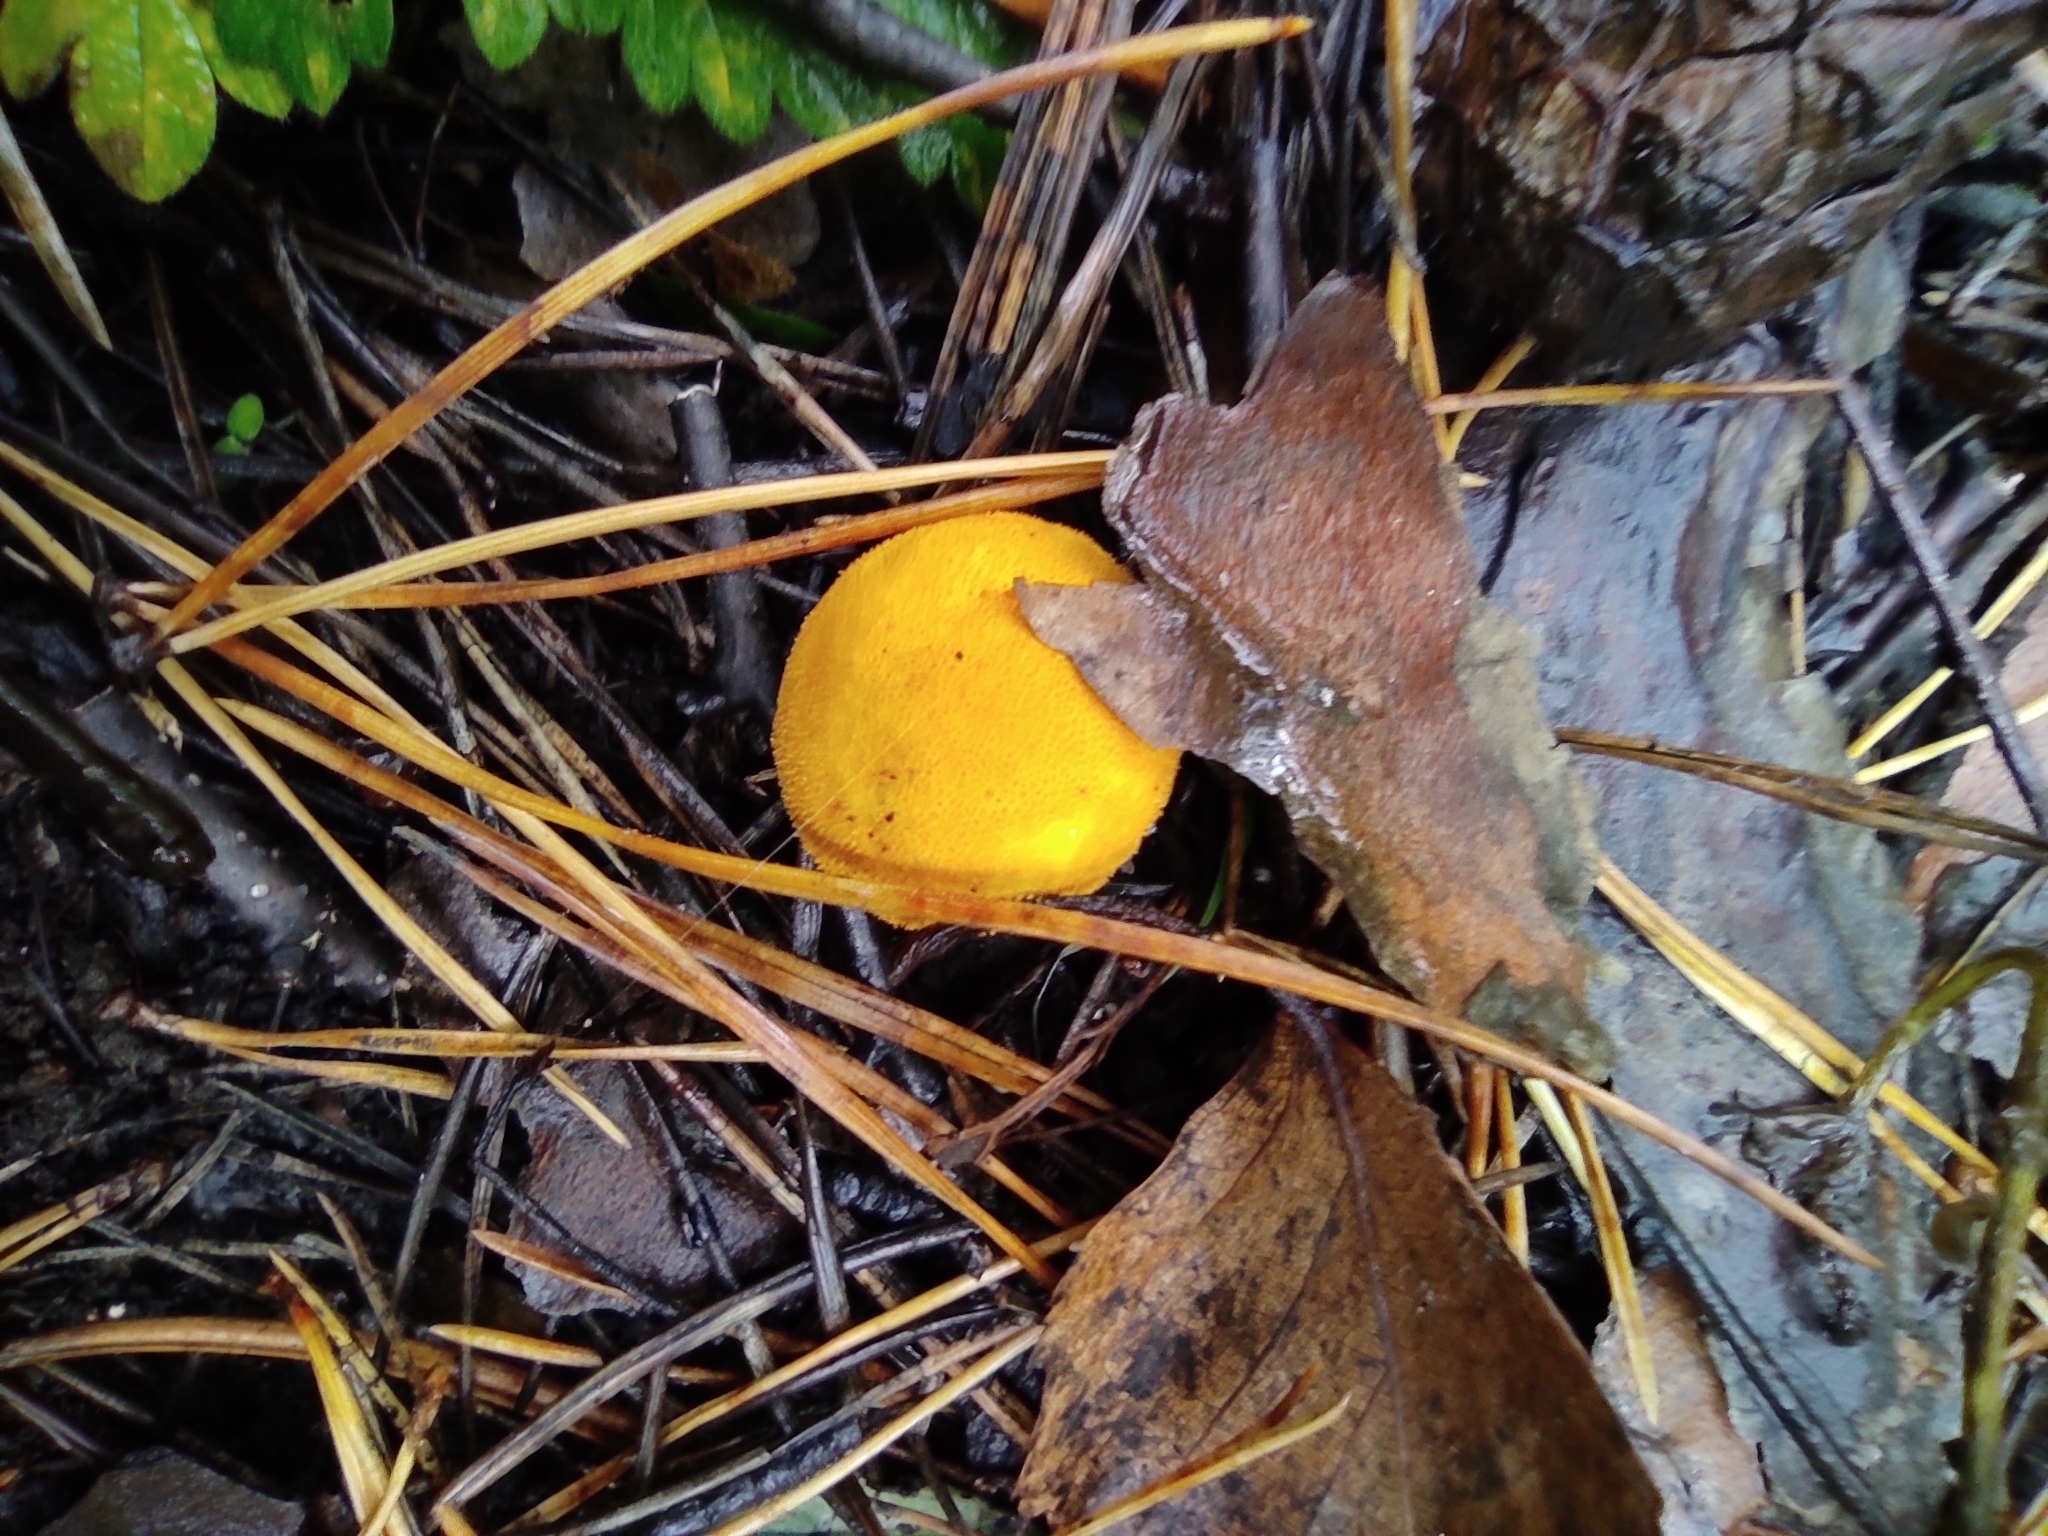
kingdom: Fungi
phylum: Basidiomycota
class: Agaricomycetes
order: Agaricales
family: Lycoperdaceae
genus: Lycoperdon
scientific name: Lycoperdon flavotinctum
